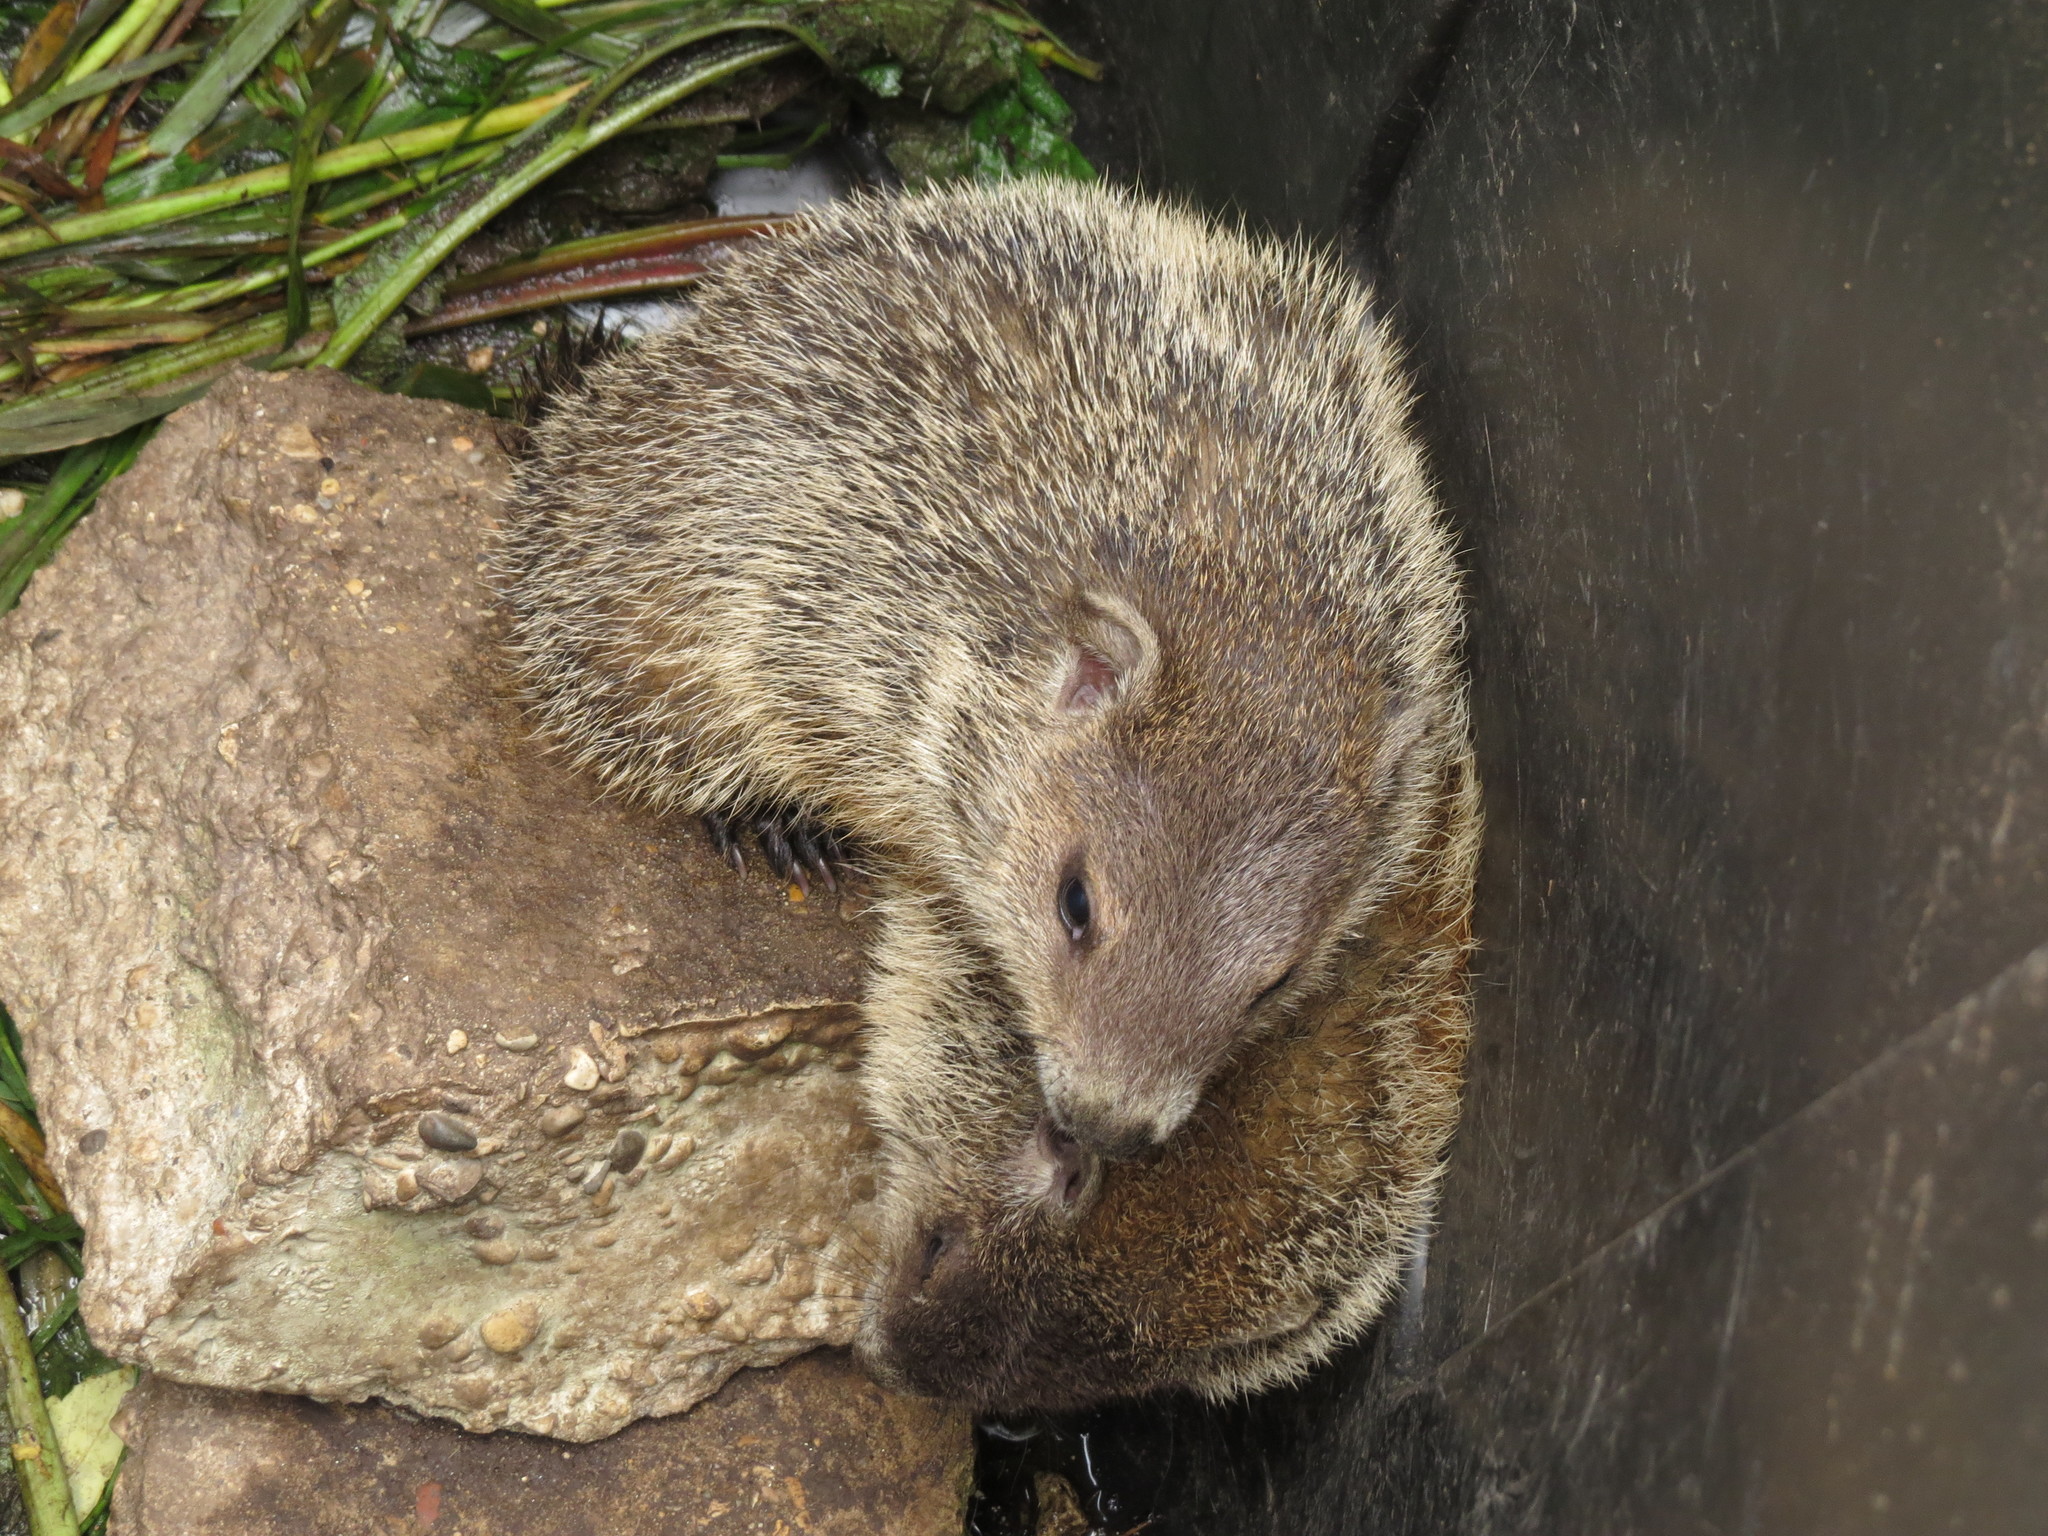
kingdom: Animalia
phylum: Chordata
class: Mammalia
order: Rodentia
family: Sciuridae
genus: Marmota
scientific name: Marmota monax
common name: Groundhog
